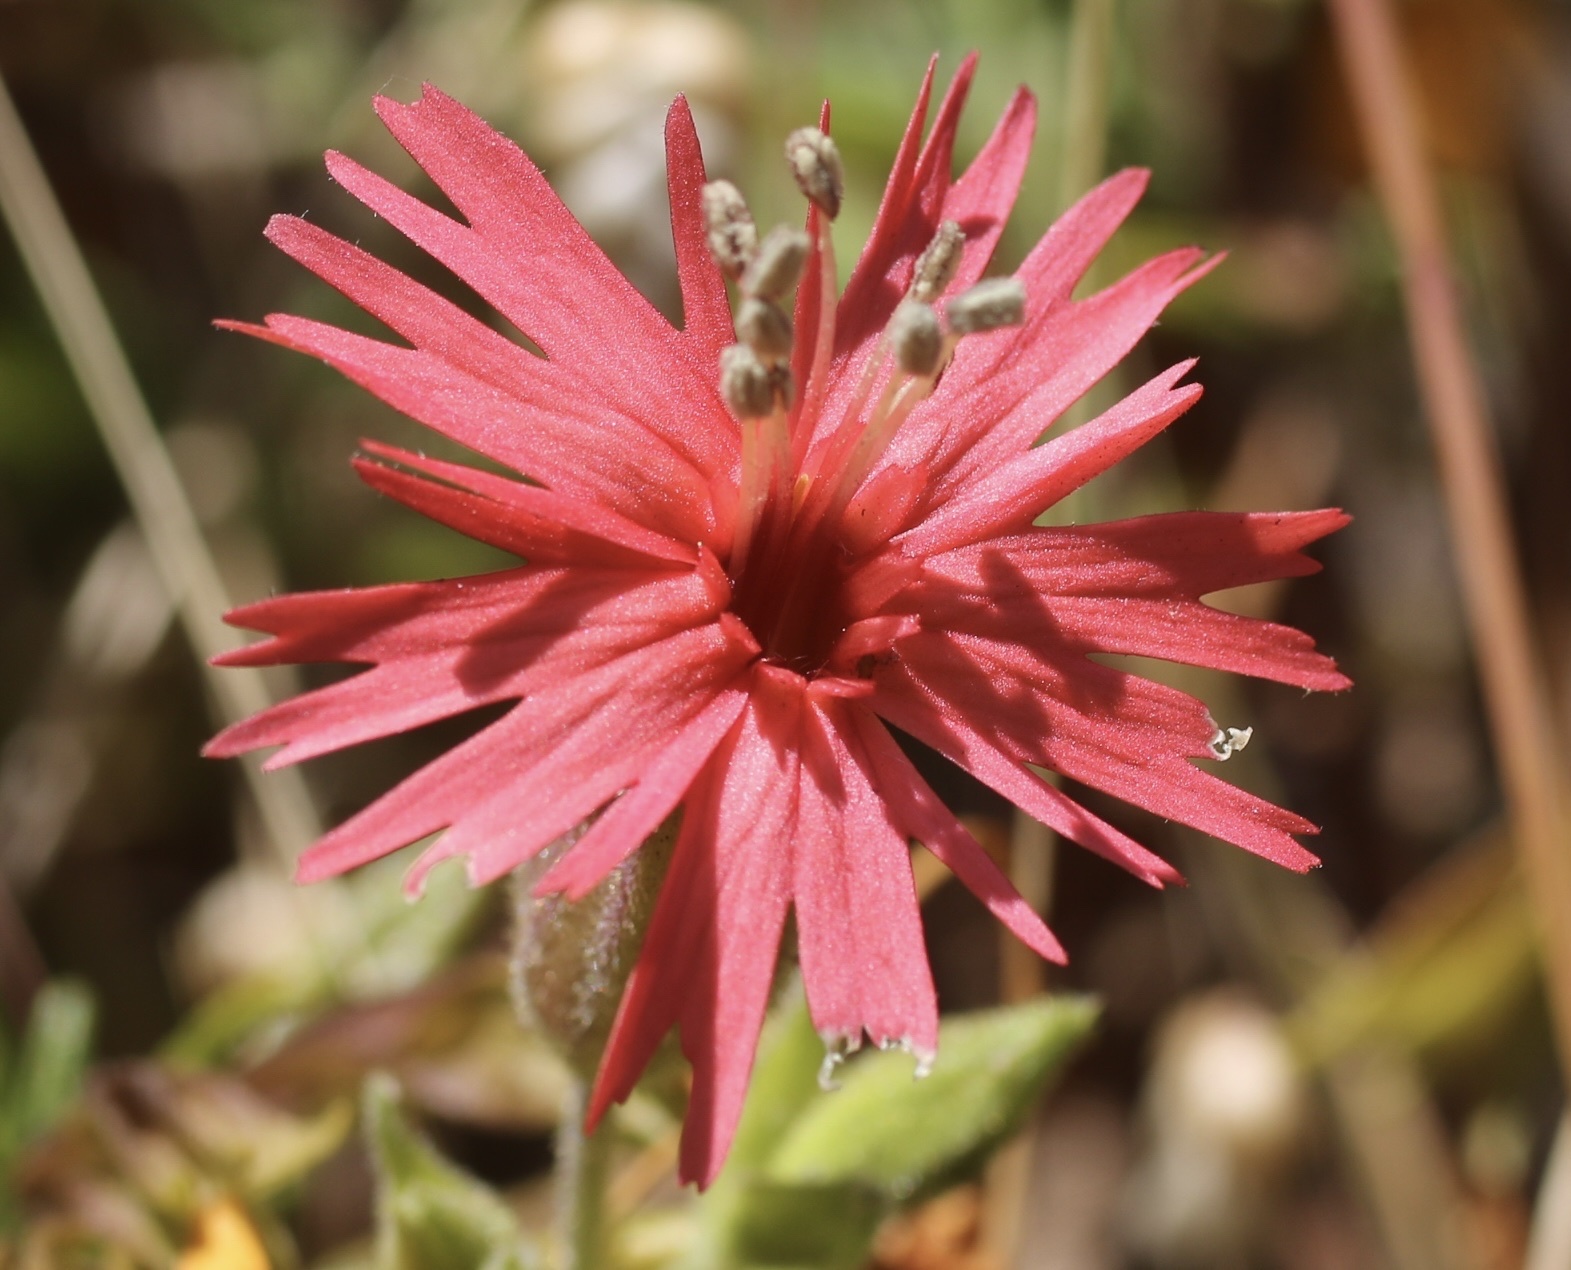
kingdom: Plantae
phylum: Tracheophyta
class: Magnoliopsida
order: Caryophyllales
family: Caryophyllaceae
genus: Silene
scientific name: Silene laciniata
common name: Indian-pink
